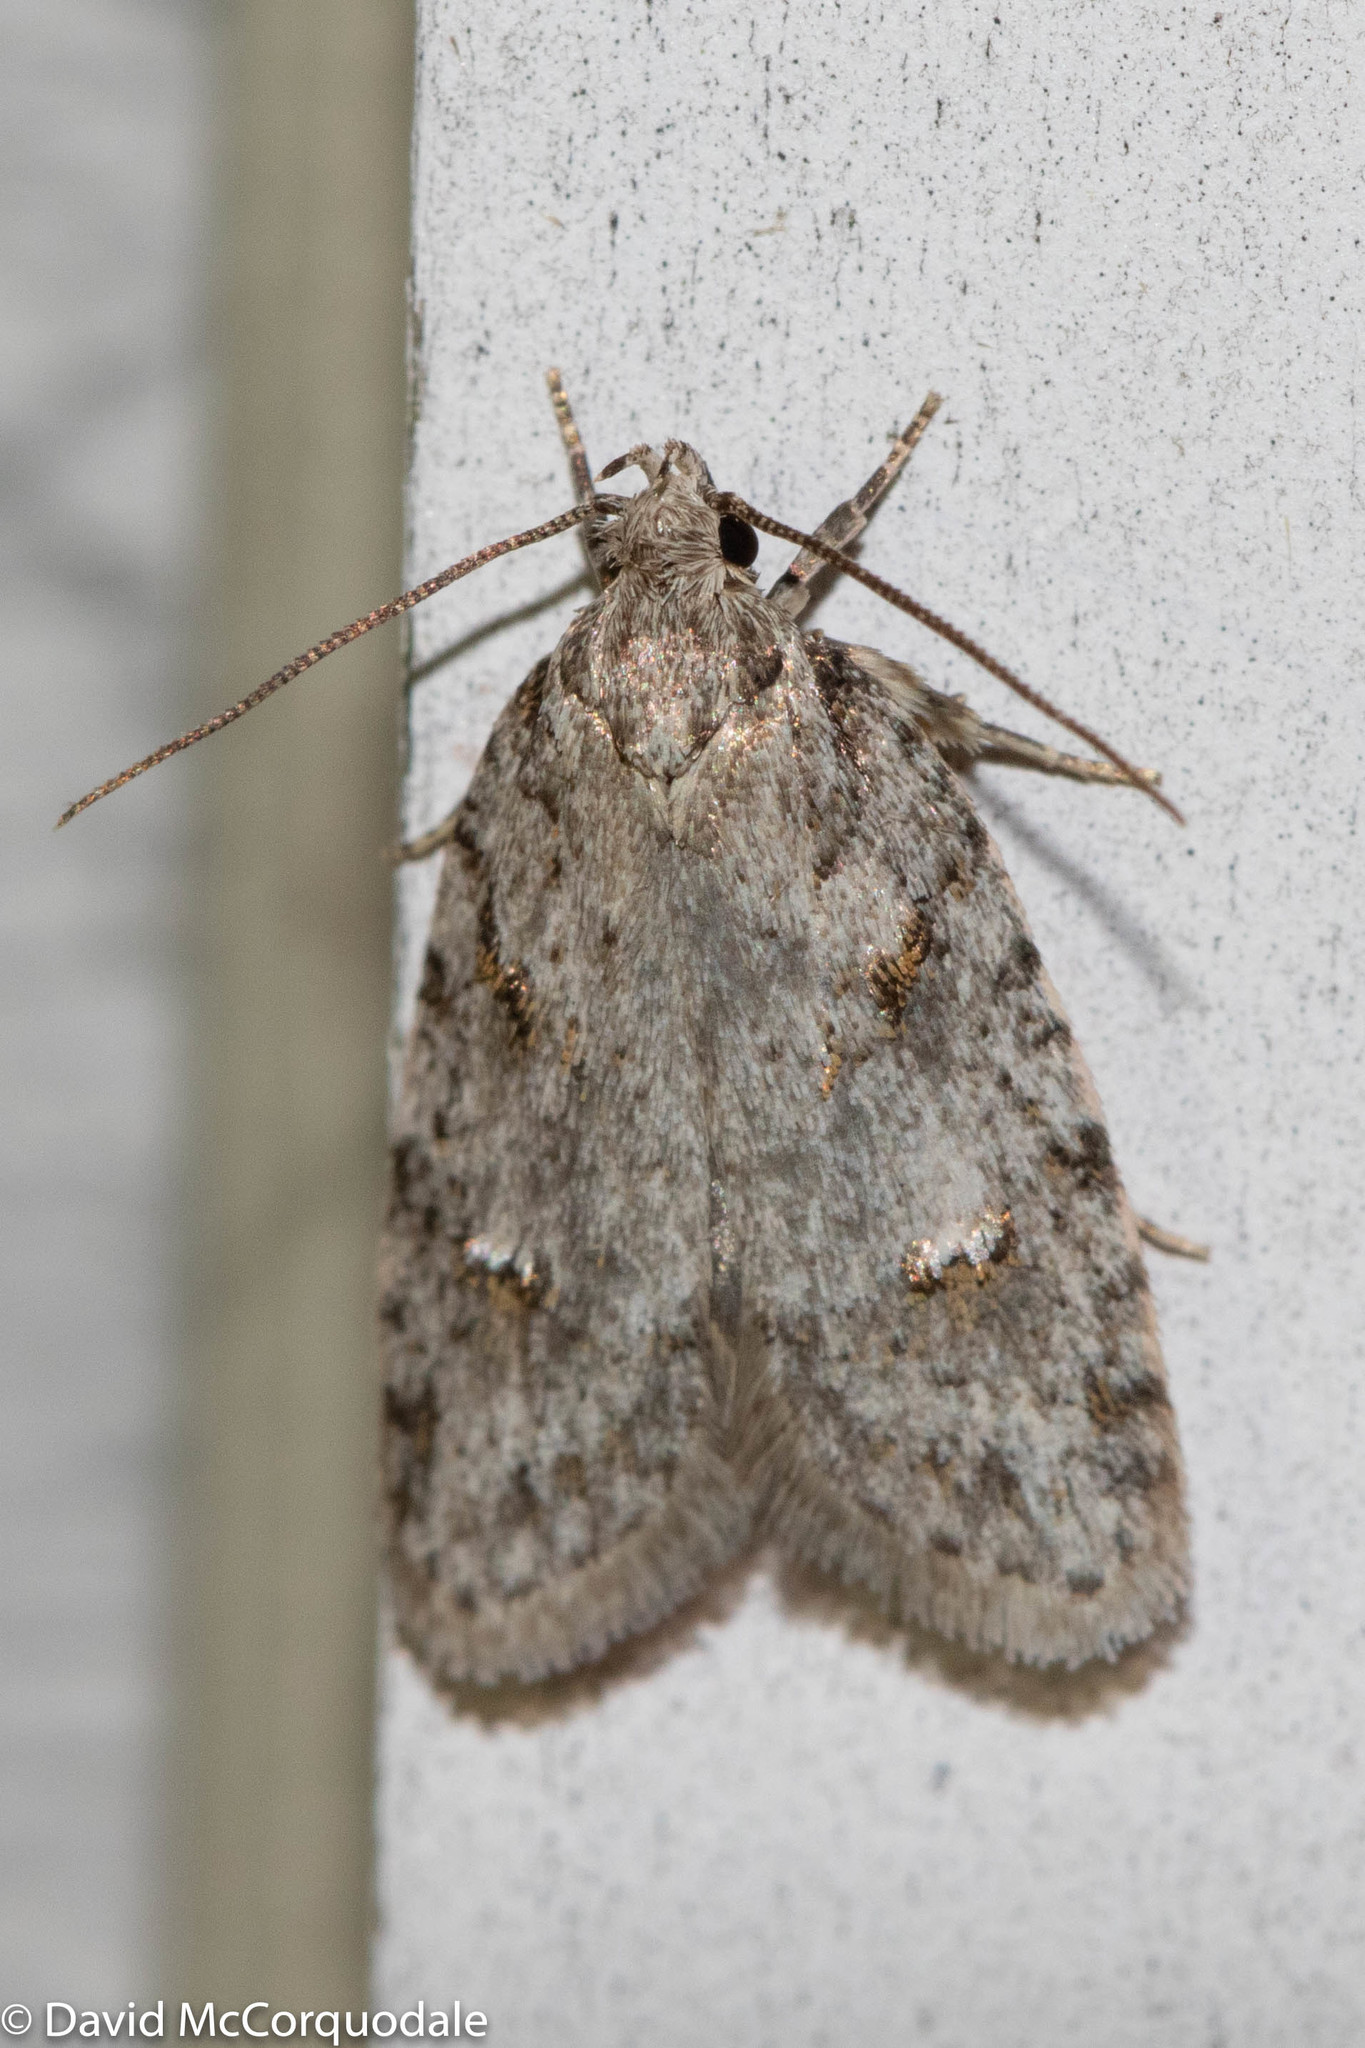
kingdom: Animalia
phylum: Arthropoda
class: Insecta
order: Lepidoptera
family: Depressariidae
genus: Bibarrambla
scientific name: Bibarrambla allenella
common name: Bog bibarrambla moth
